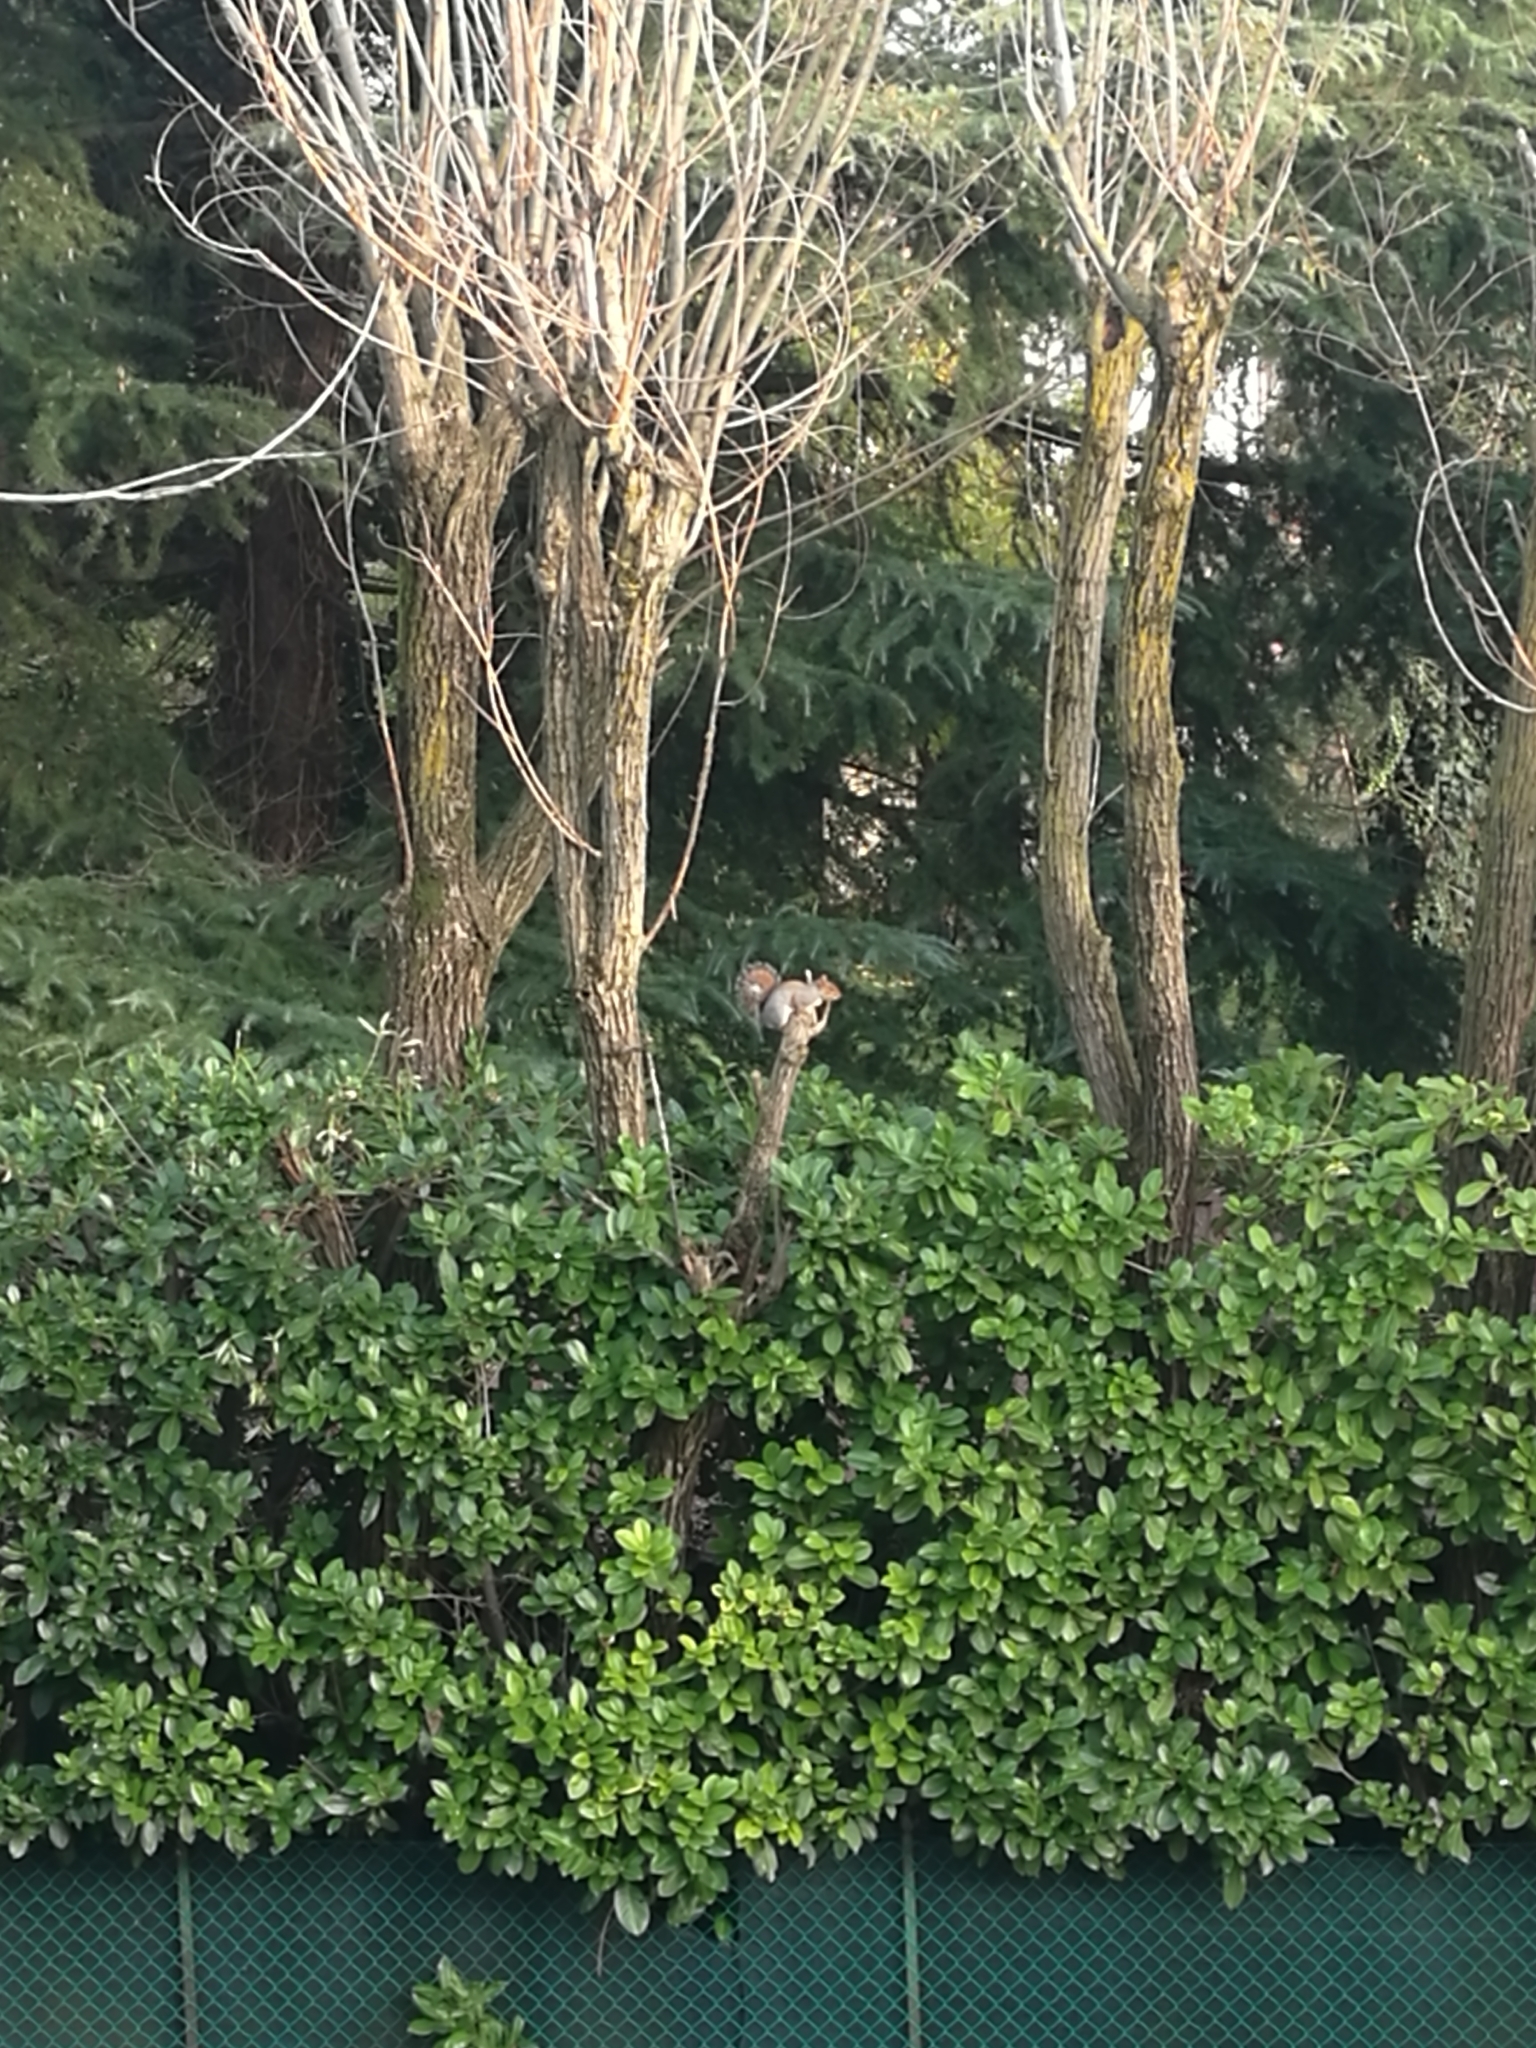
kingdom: Animalia
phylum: Chordata
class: Mammalia
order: Rodentia
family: Sciuridae
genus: Sciurus
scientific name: Sciurus carolinensis
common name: Eastern gray squirrel
